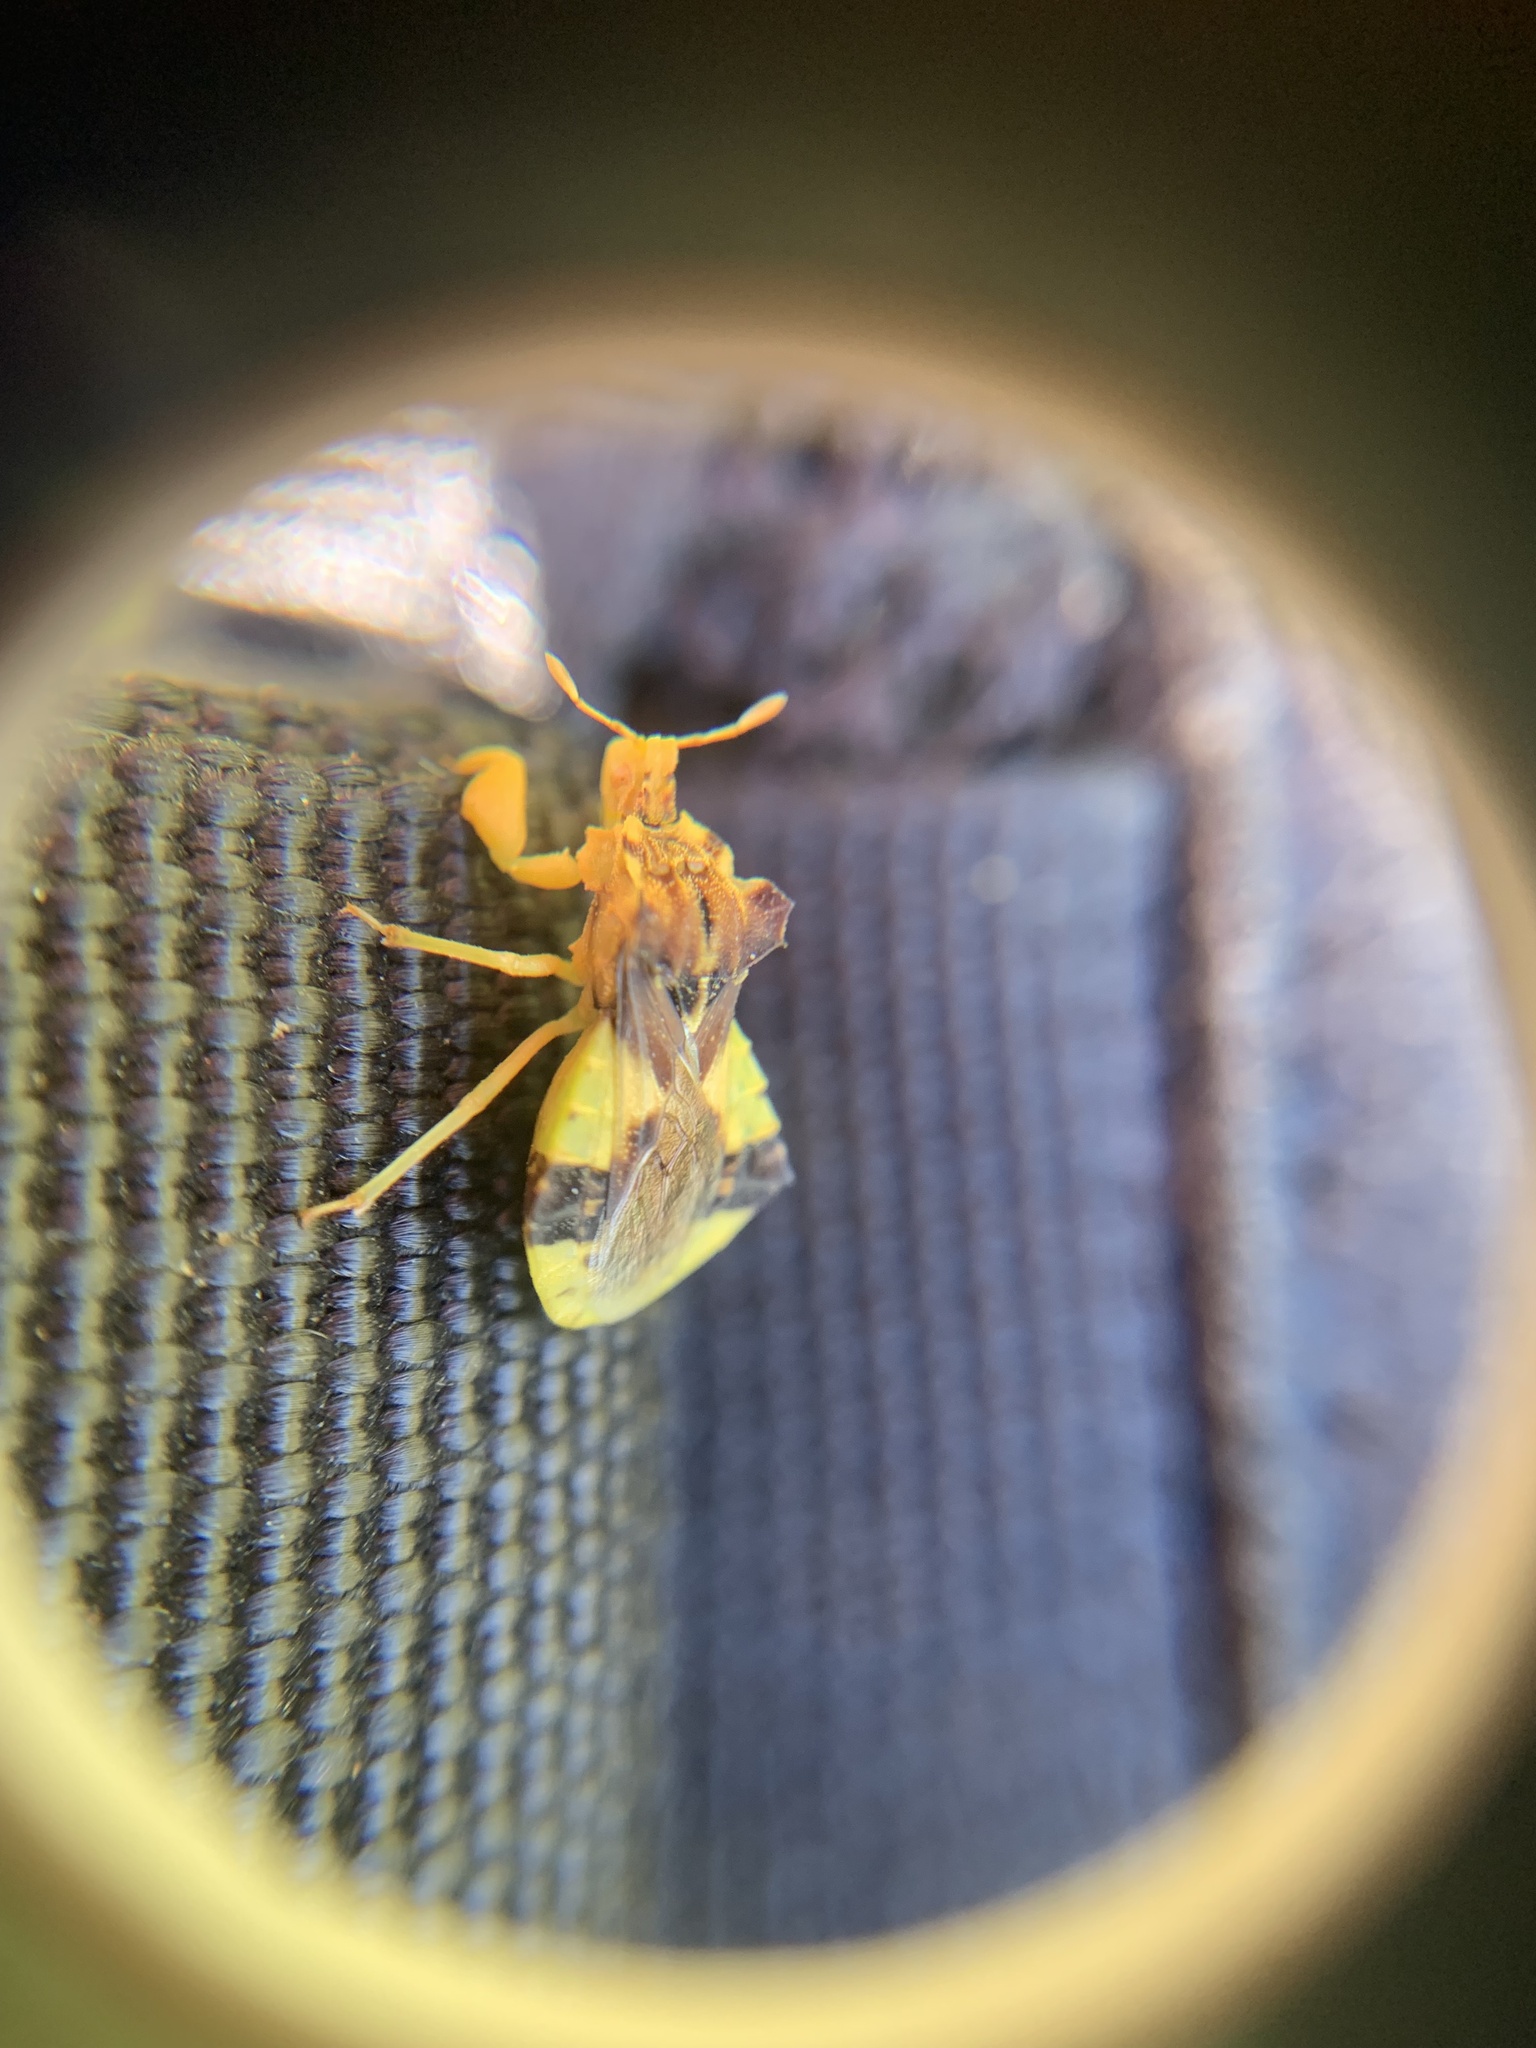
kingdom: Animalia
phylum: Arthropoda
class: Insecta
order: Hemiptera
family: Reduviidae
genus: Phymata
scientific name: Phymata americana
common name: Jagged ambush bug
